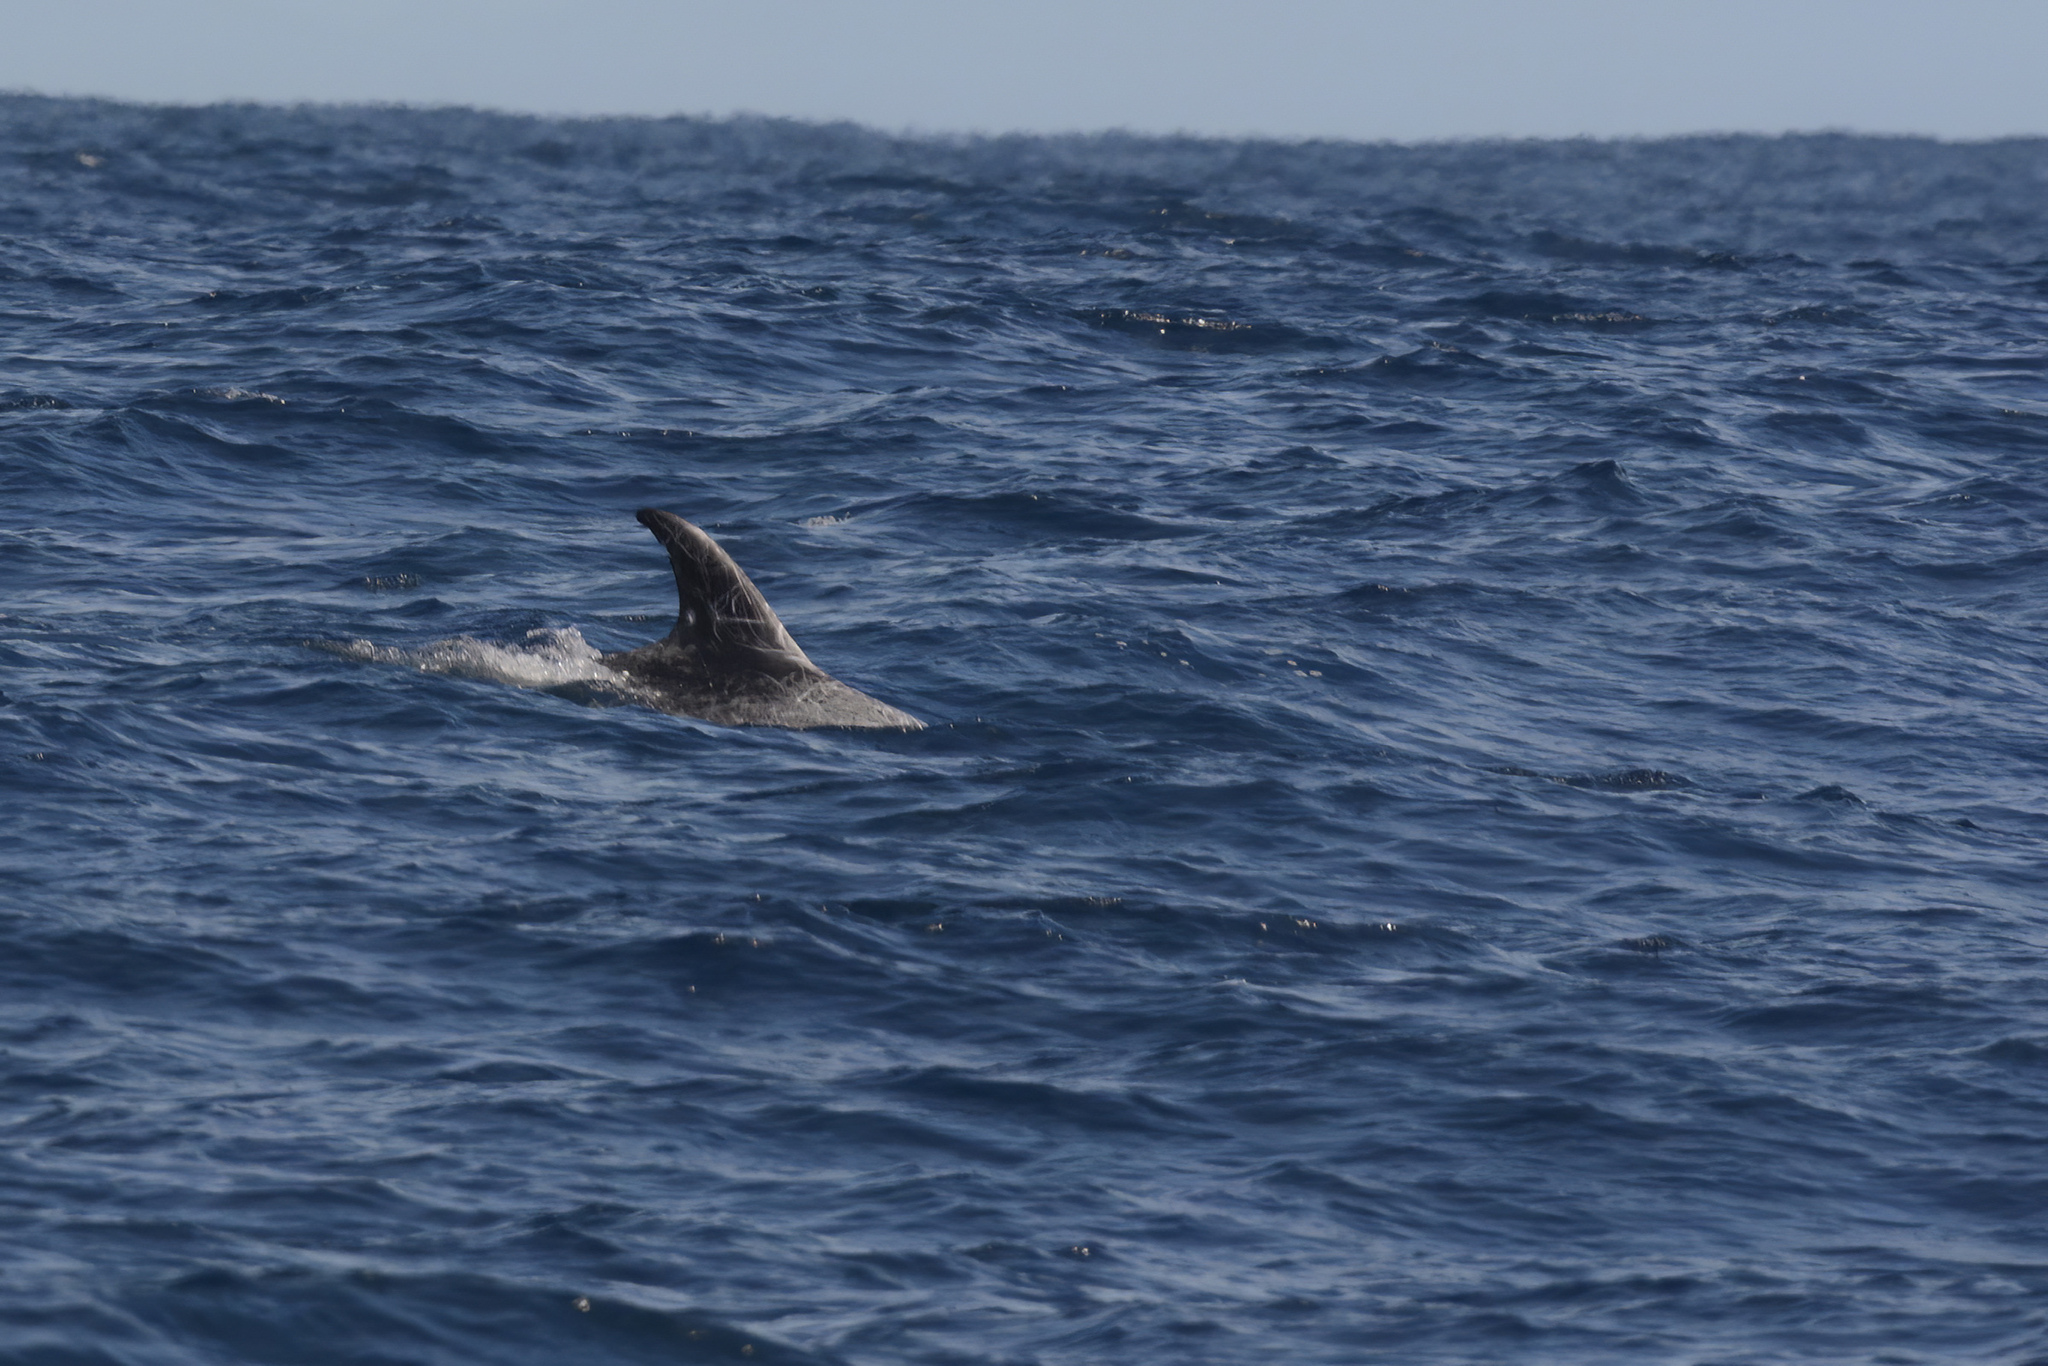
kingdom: Animalia
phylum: Chordata
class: Mammalia
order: Cetacea
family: Delphinidae
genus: Grampus
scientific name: Grampus griseus
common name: Risso's dolphin
